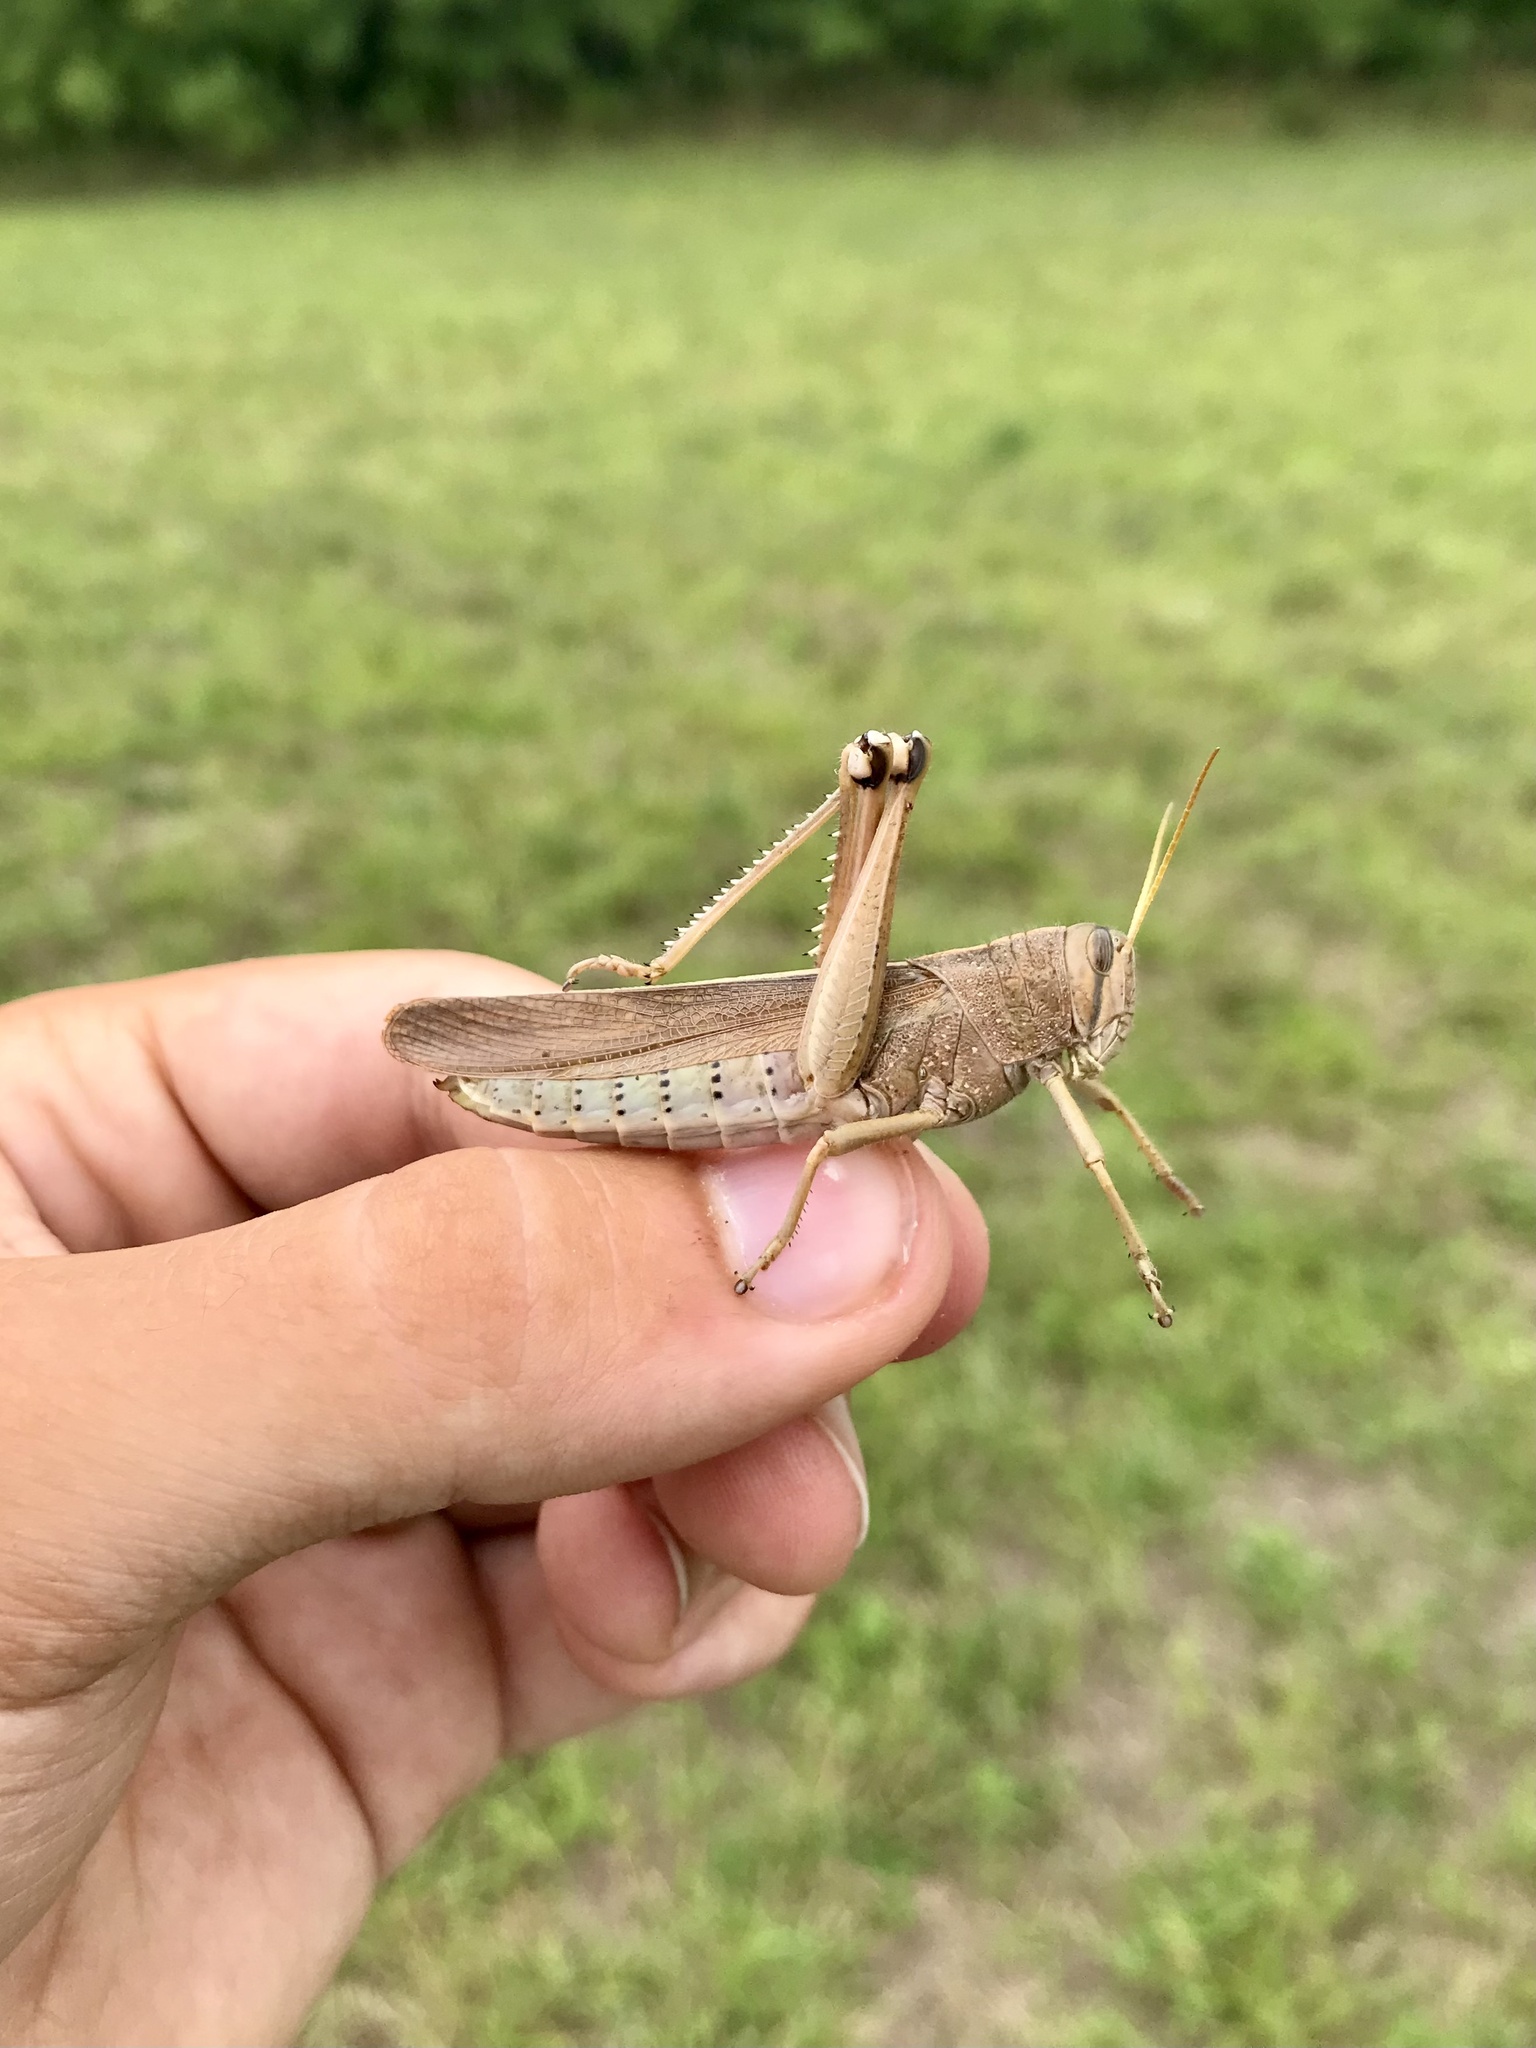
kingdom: Animalia
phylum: Arthropoda
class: Insecta
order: Orthoptera
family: Acrididae
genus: Schistocerca
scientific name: Schistocerca lineata
